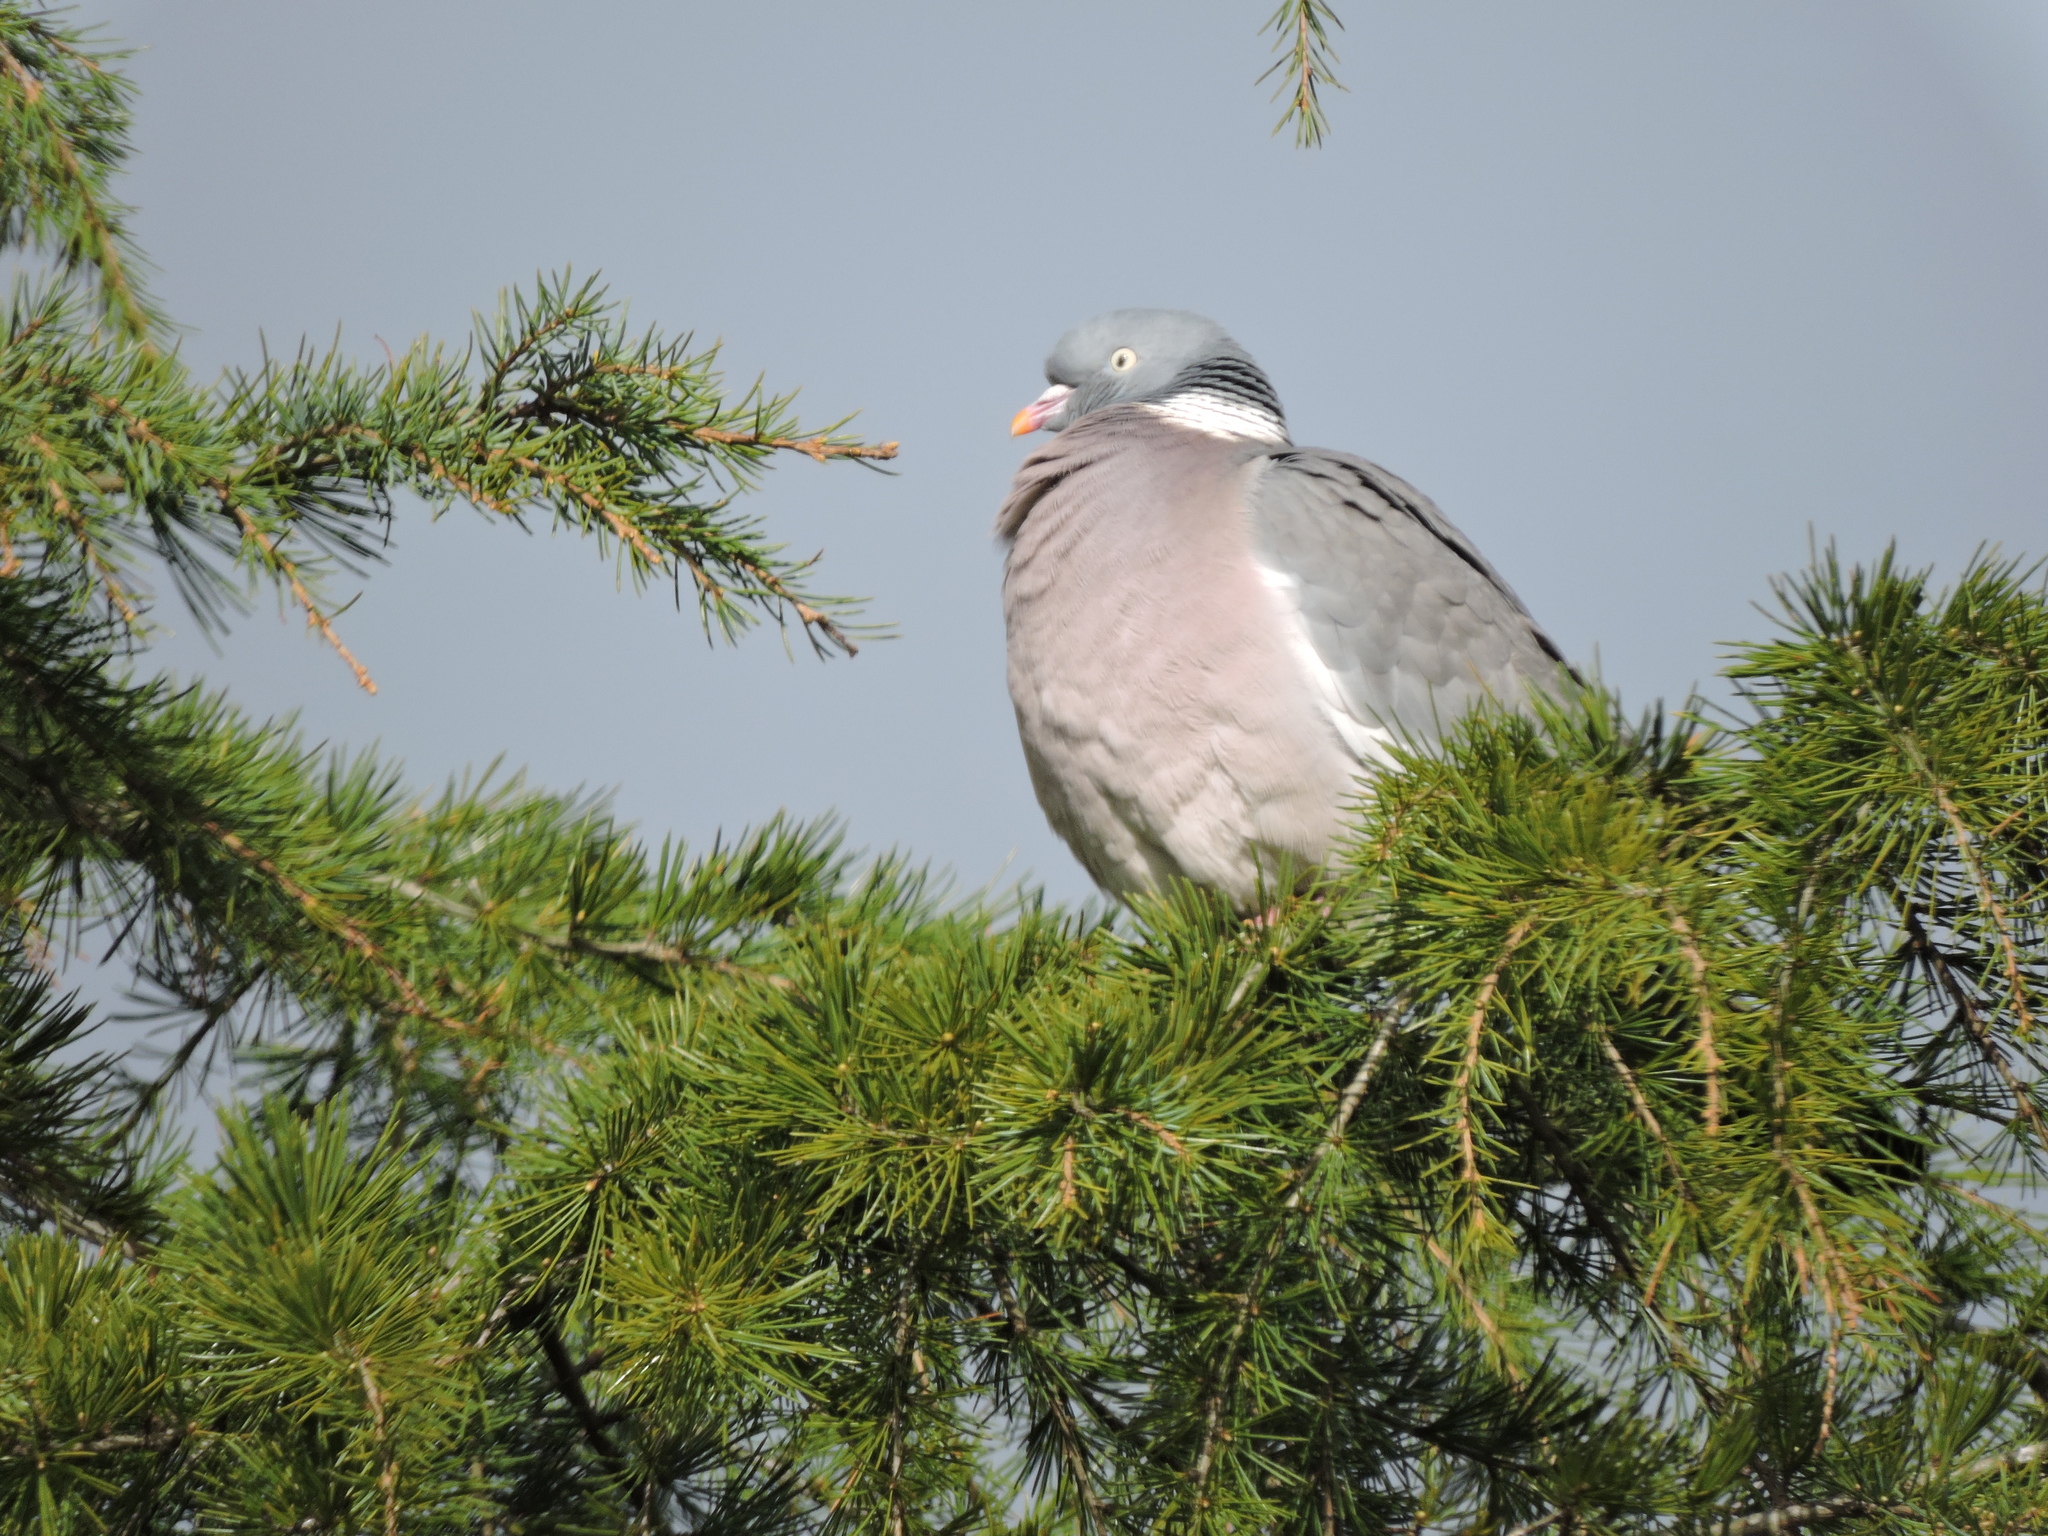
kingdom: Animalia
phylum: Chordata
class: Aves
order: Columbiformes
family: Columbidae
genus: Columba
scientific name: Columba palumbus
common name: Common wood pigeon
